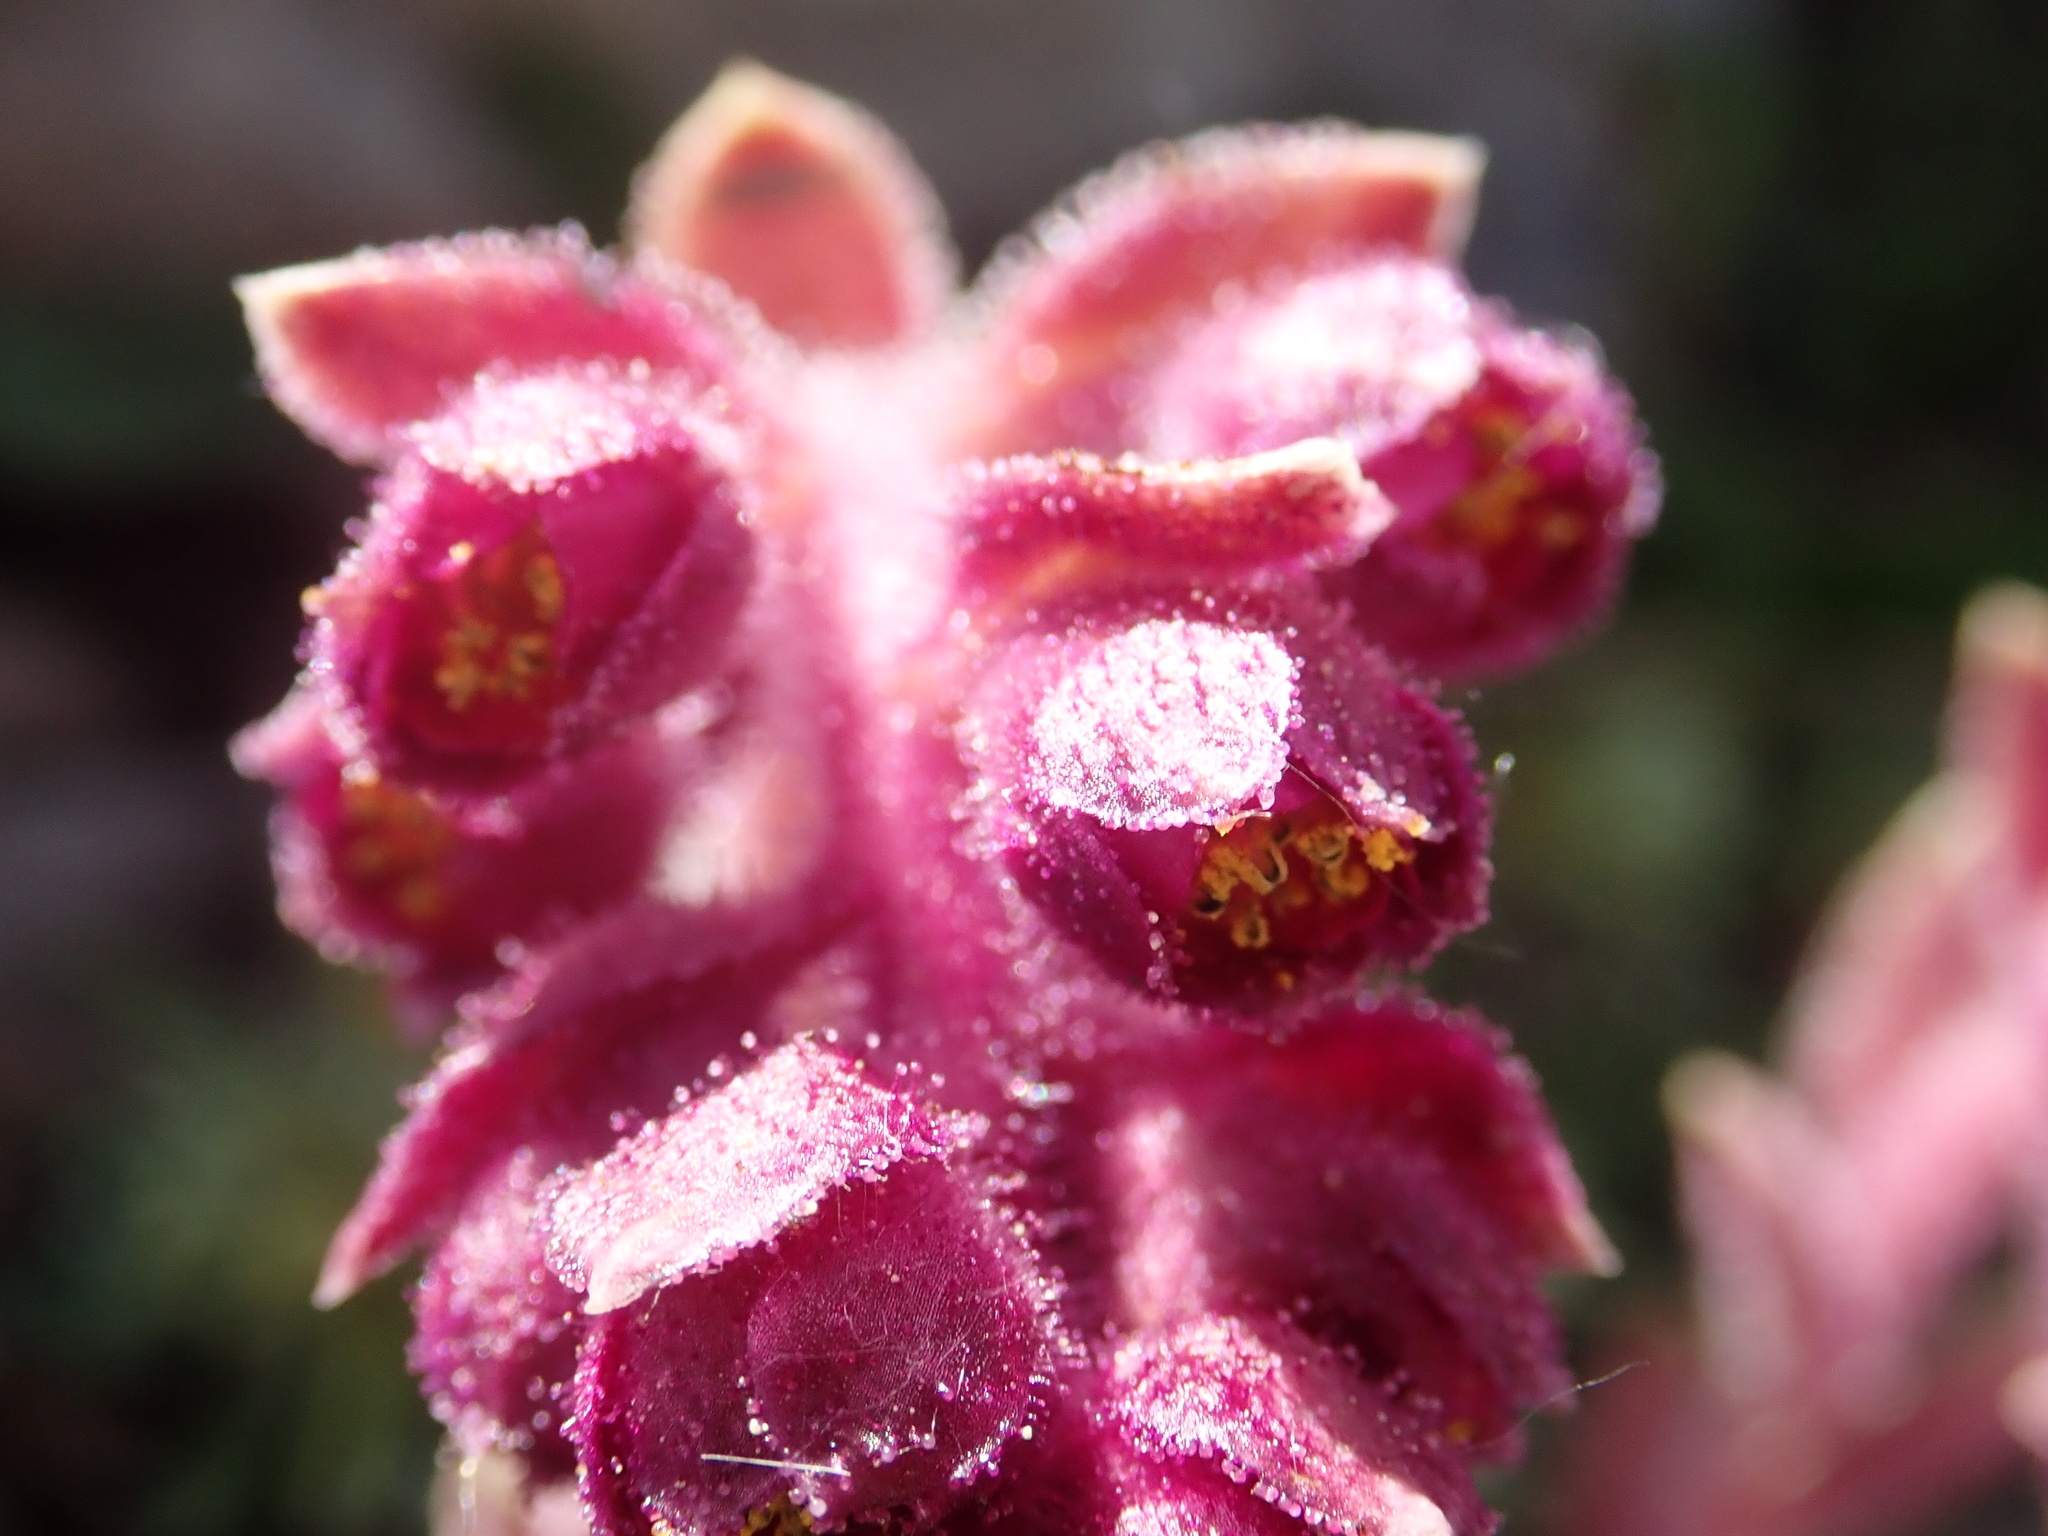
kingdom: Plantae
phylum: Tracheophyta
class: Magnoliopsida
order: Saxifragales
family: Saxifragaceae
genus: Saxifraga
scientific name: Saxifraga sempervivum
